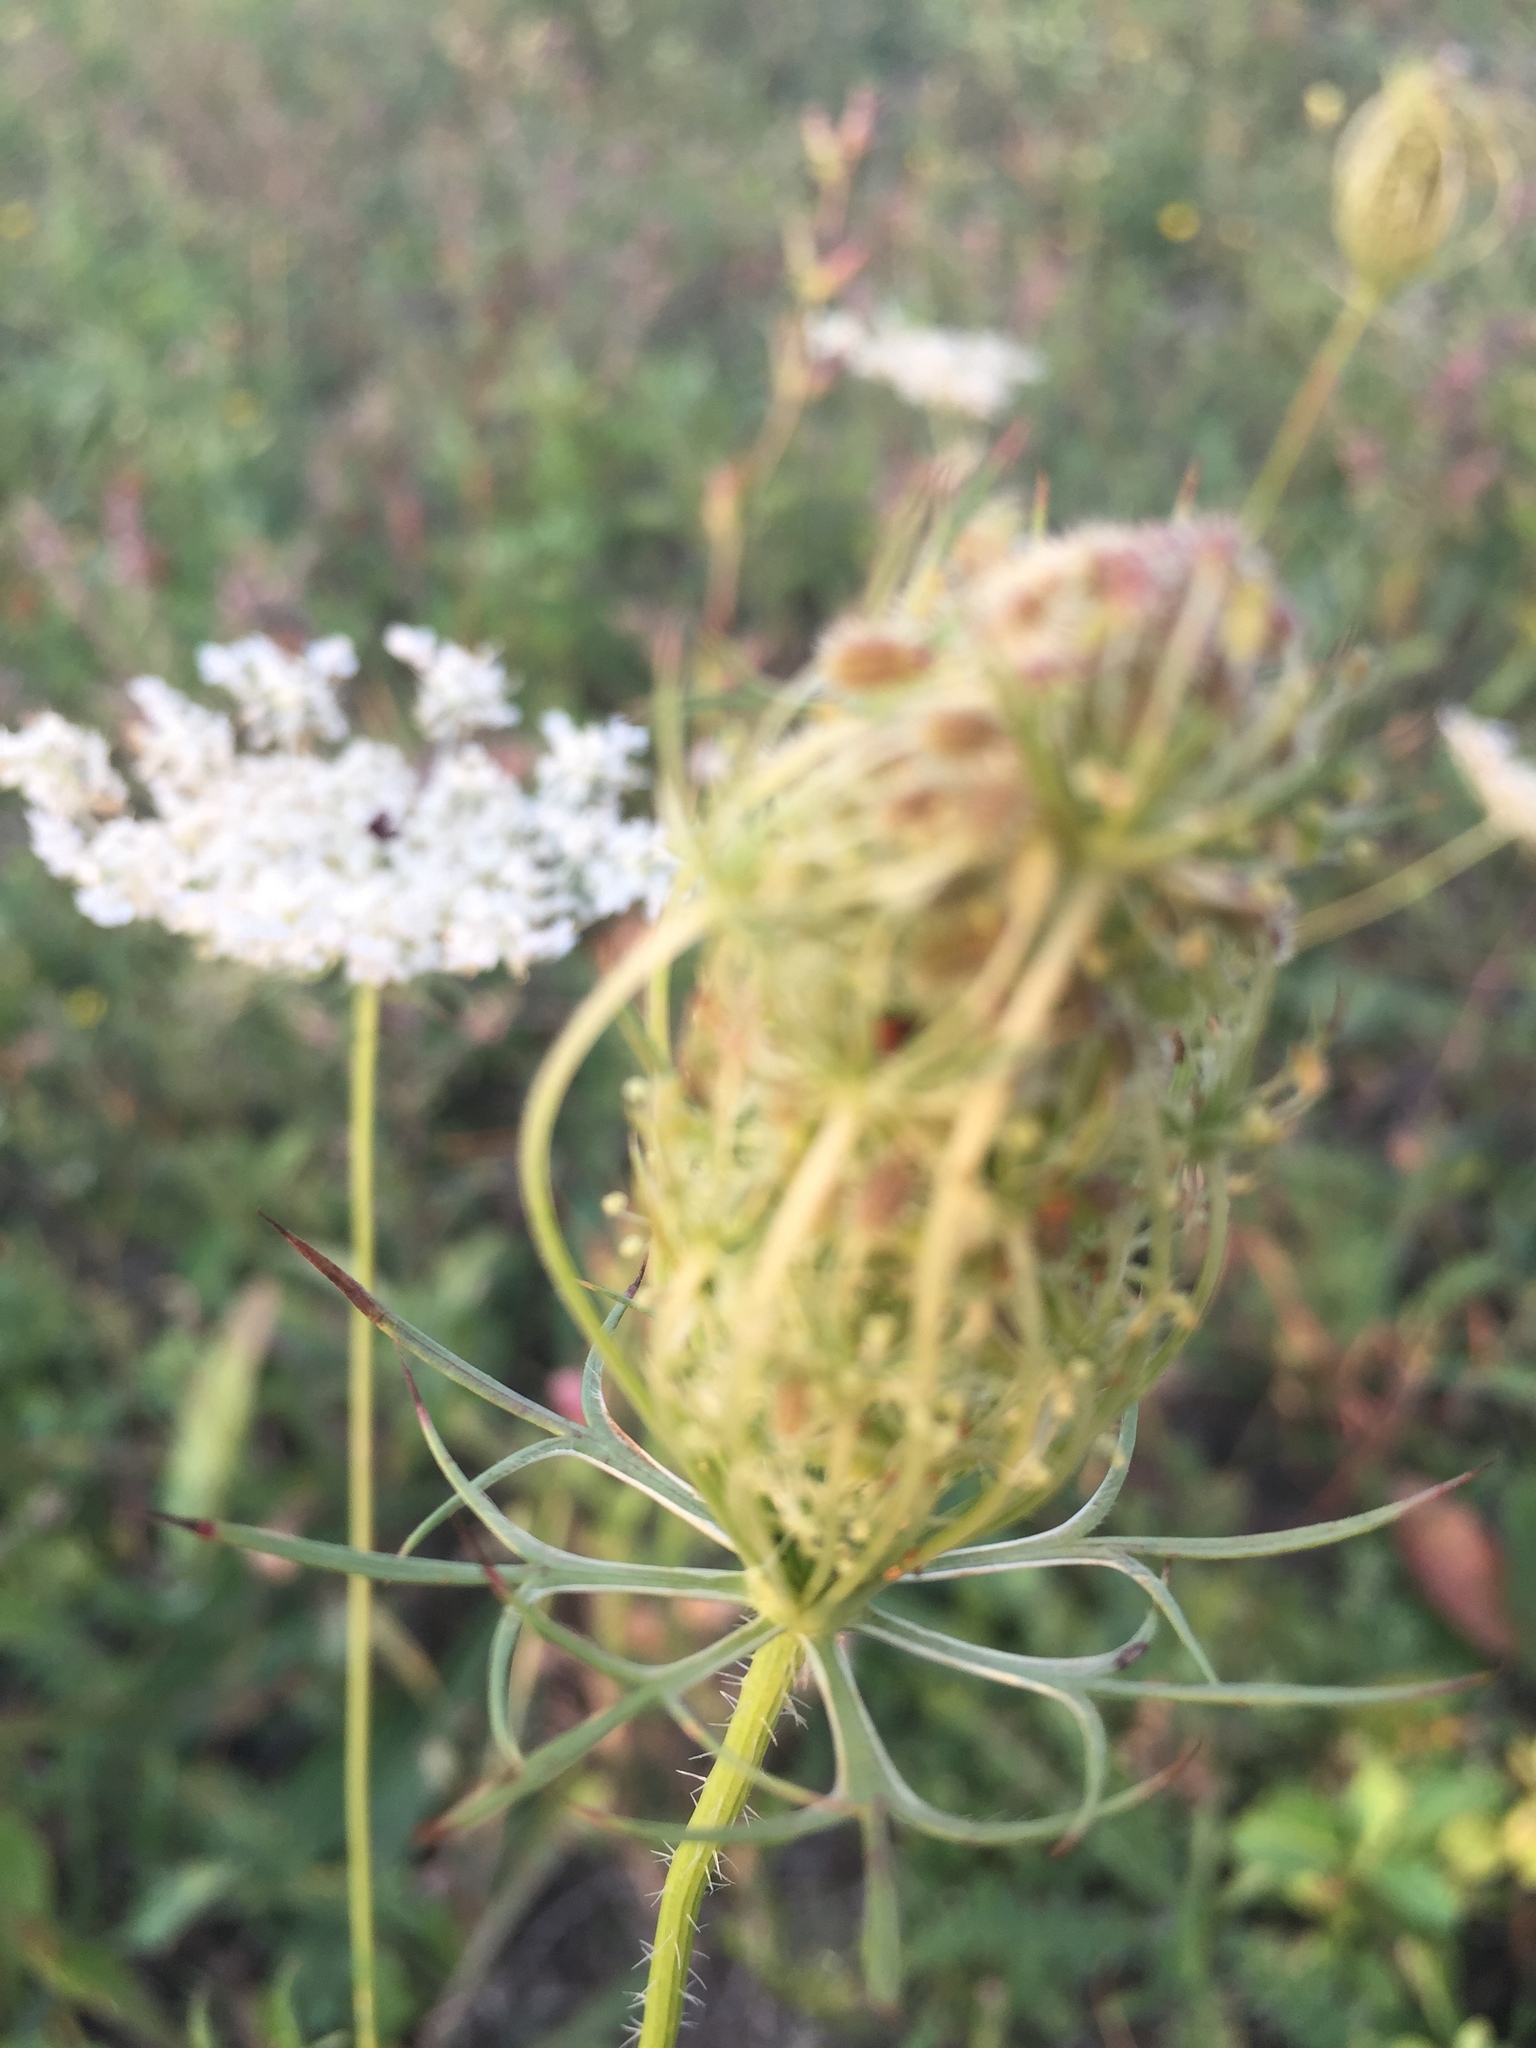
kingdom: Plantae
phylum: Tracheophyta
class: Magnoliopsida
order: Apiales
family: Apiaceae
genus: Daucus
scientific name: Daucus carota
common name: Wild carrot
